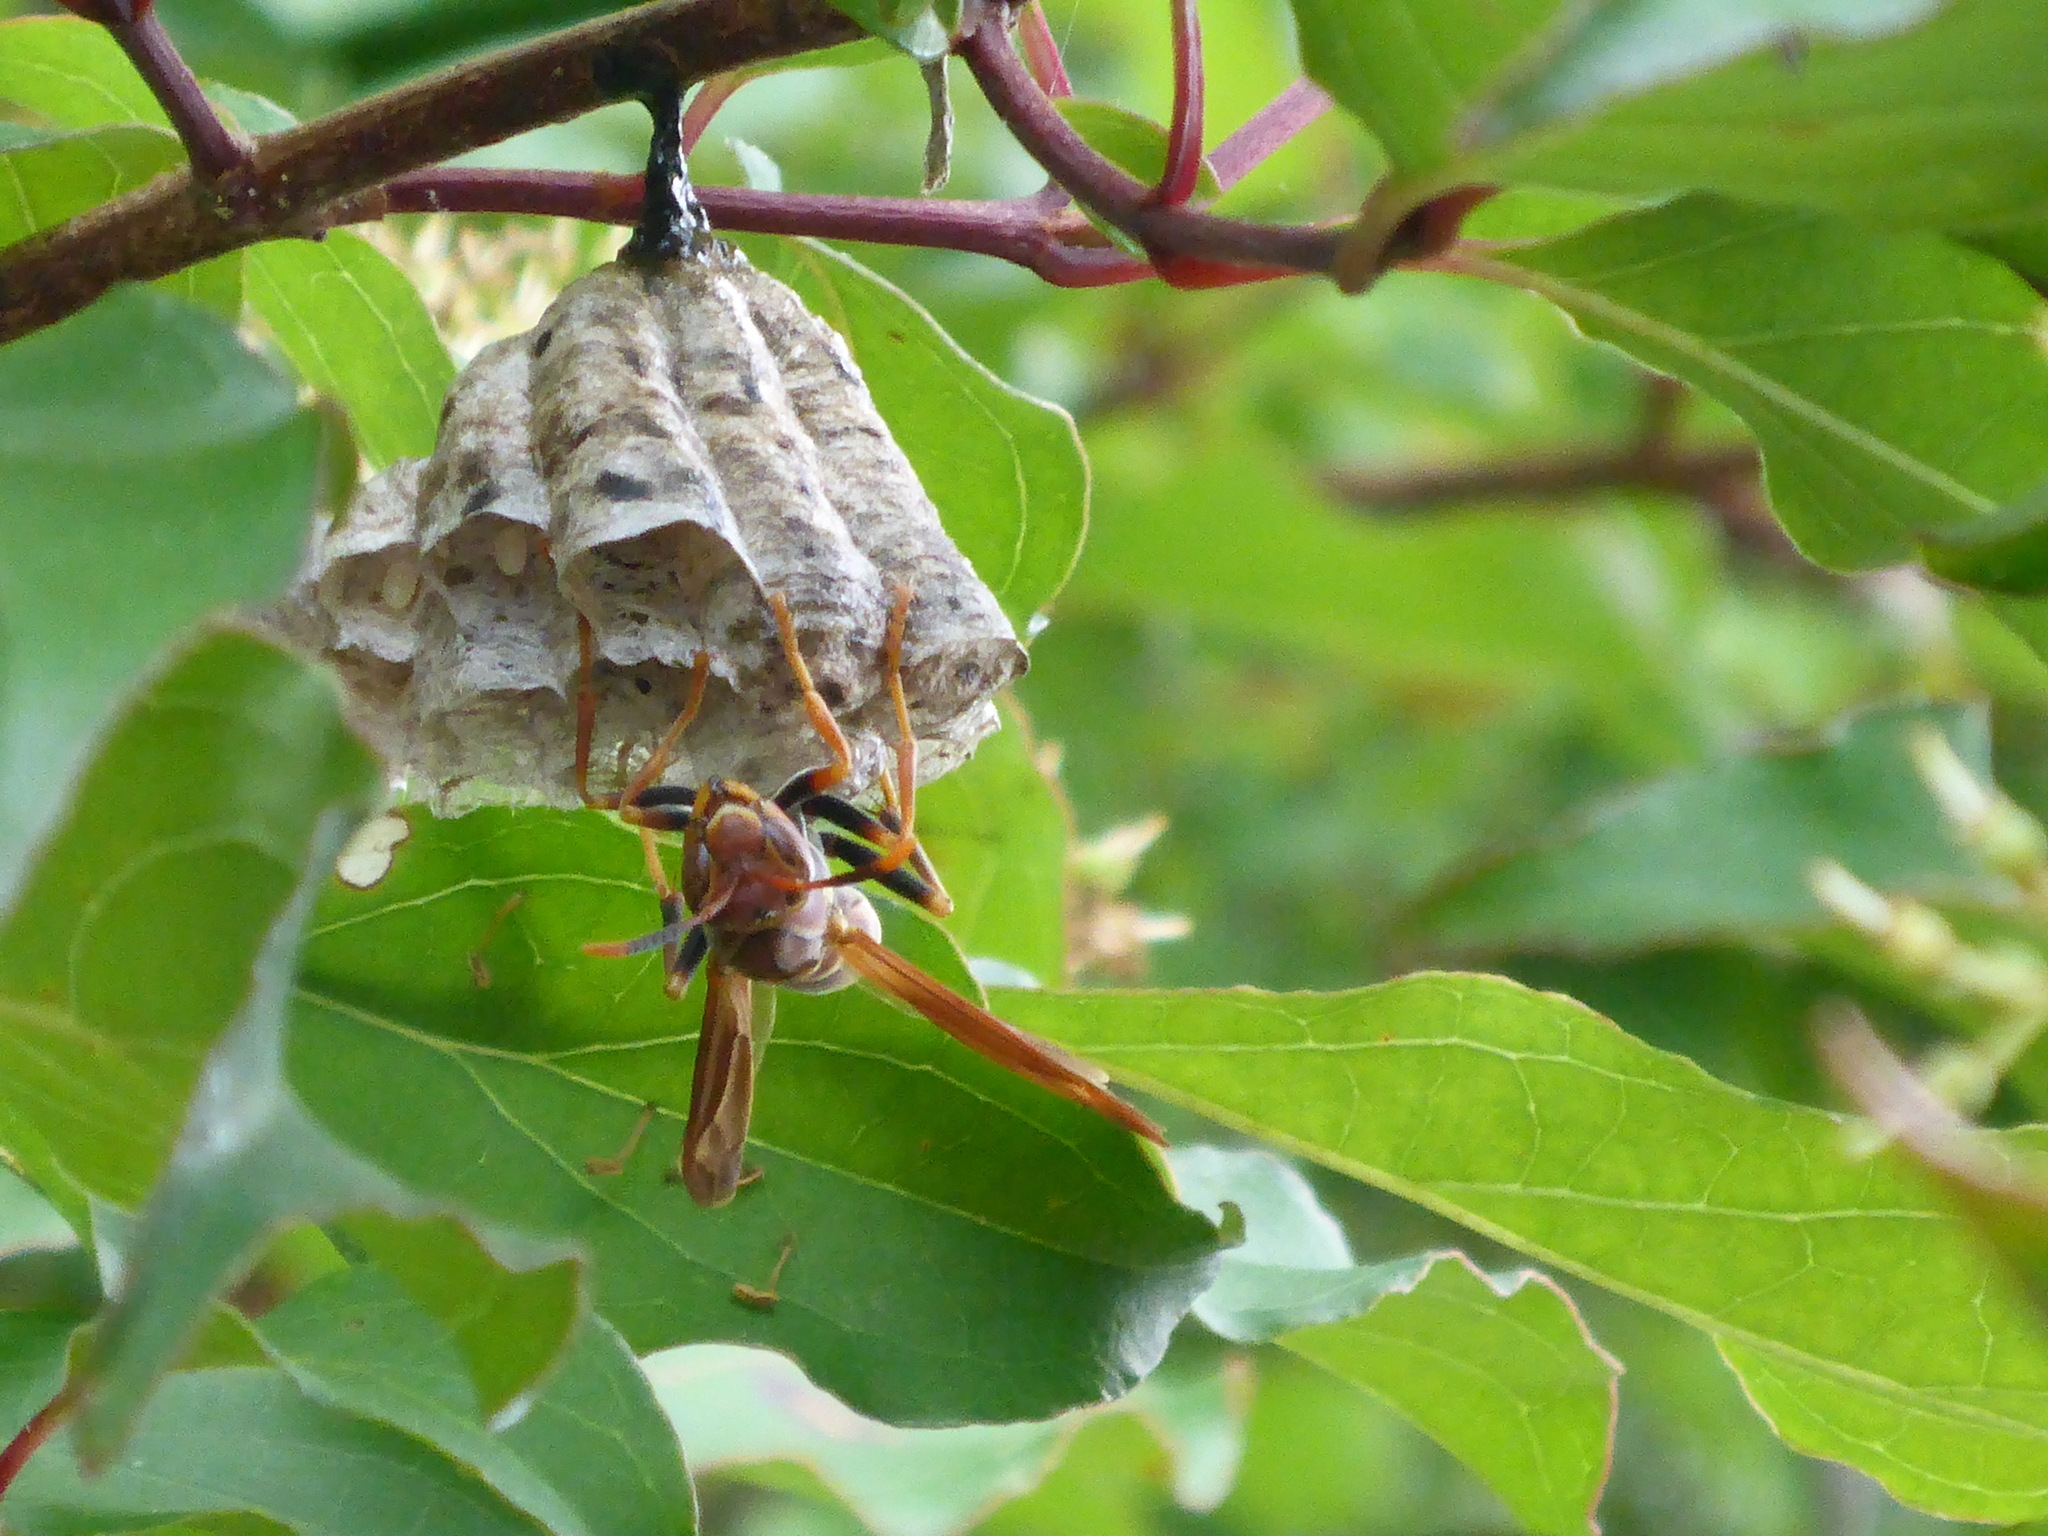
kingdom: Animalia
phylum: Arthropoda
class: Insecta
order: Hymenoptera
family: Pompilidae
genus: Aphanilopterus
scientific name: Aphanilopterus
